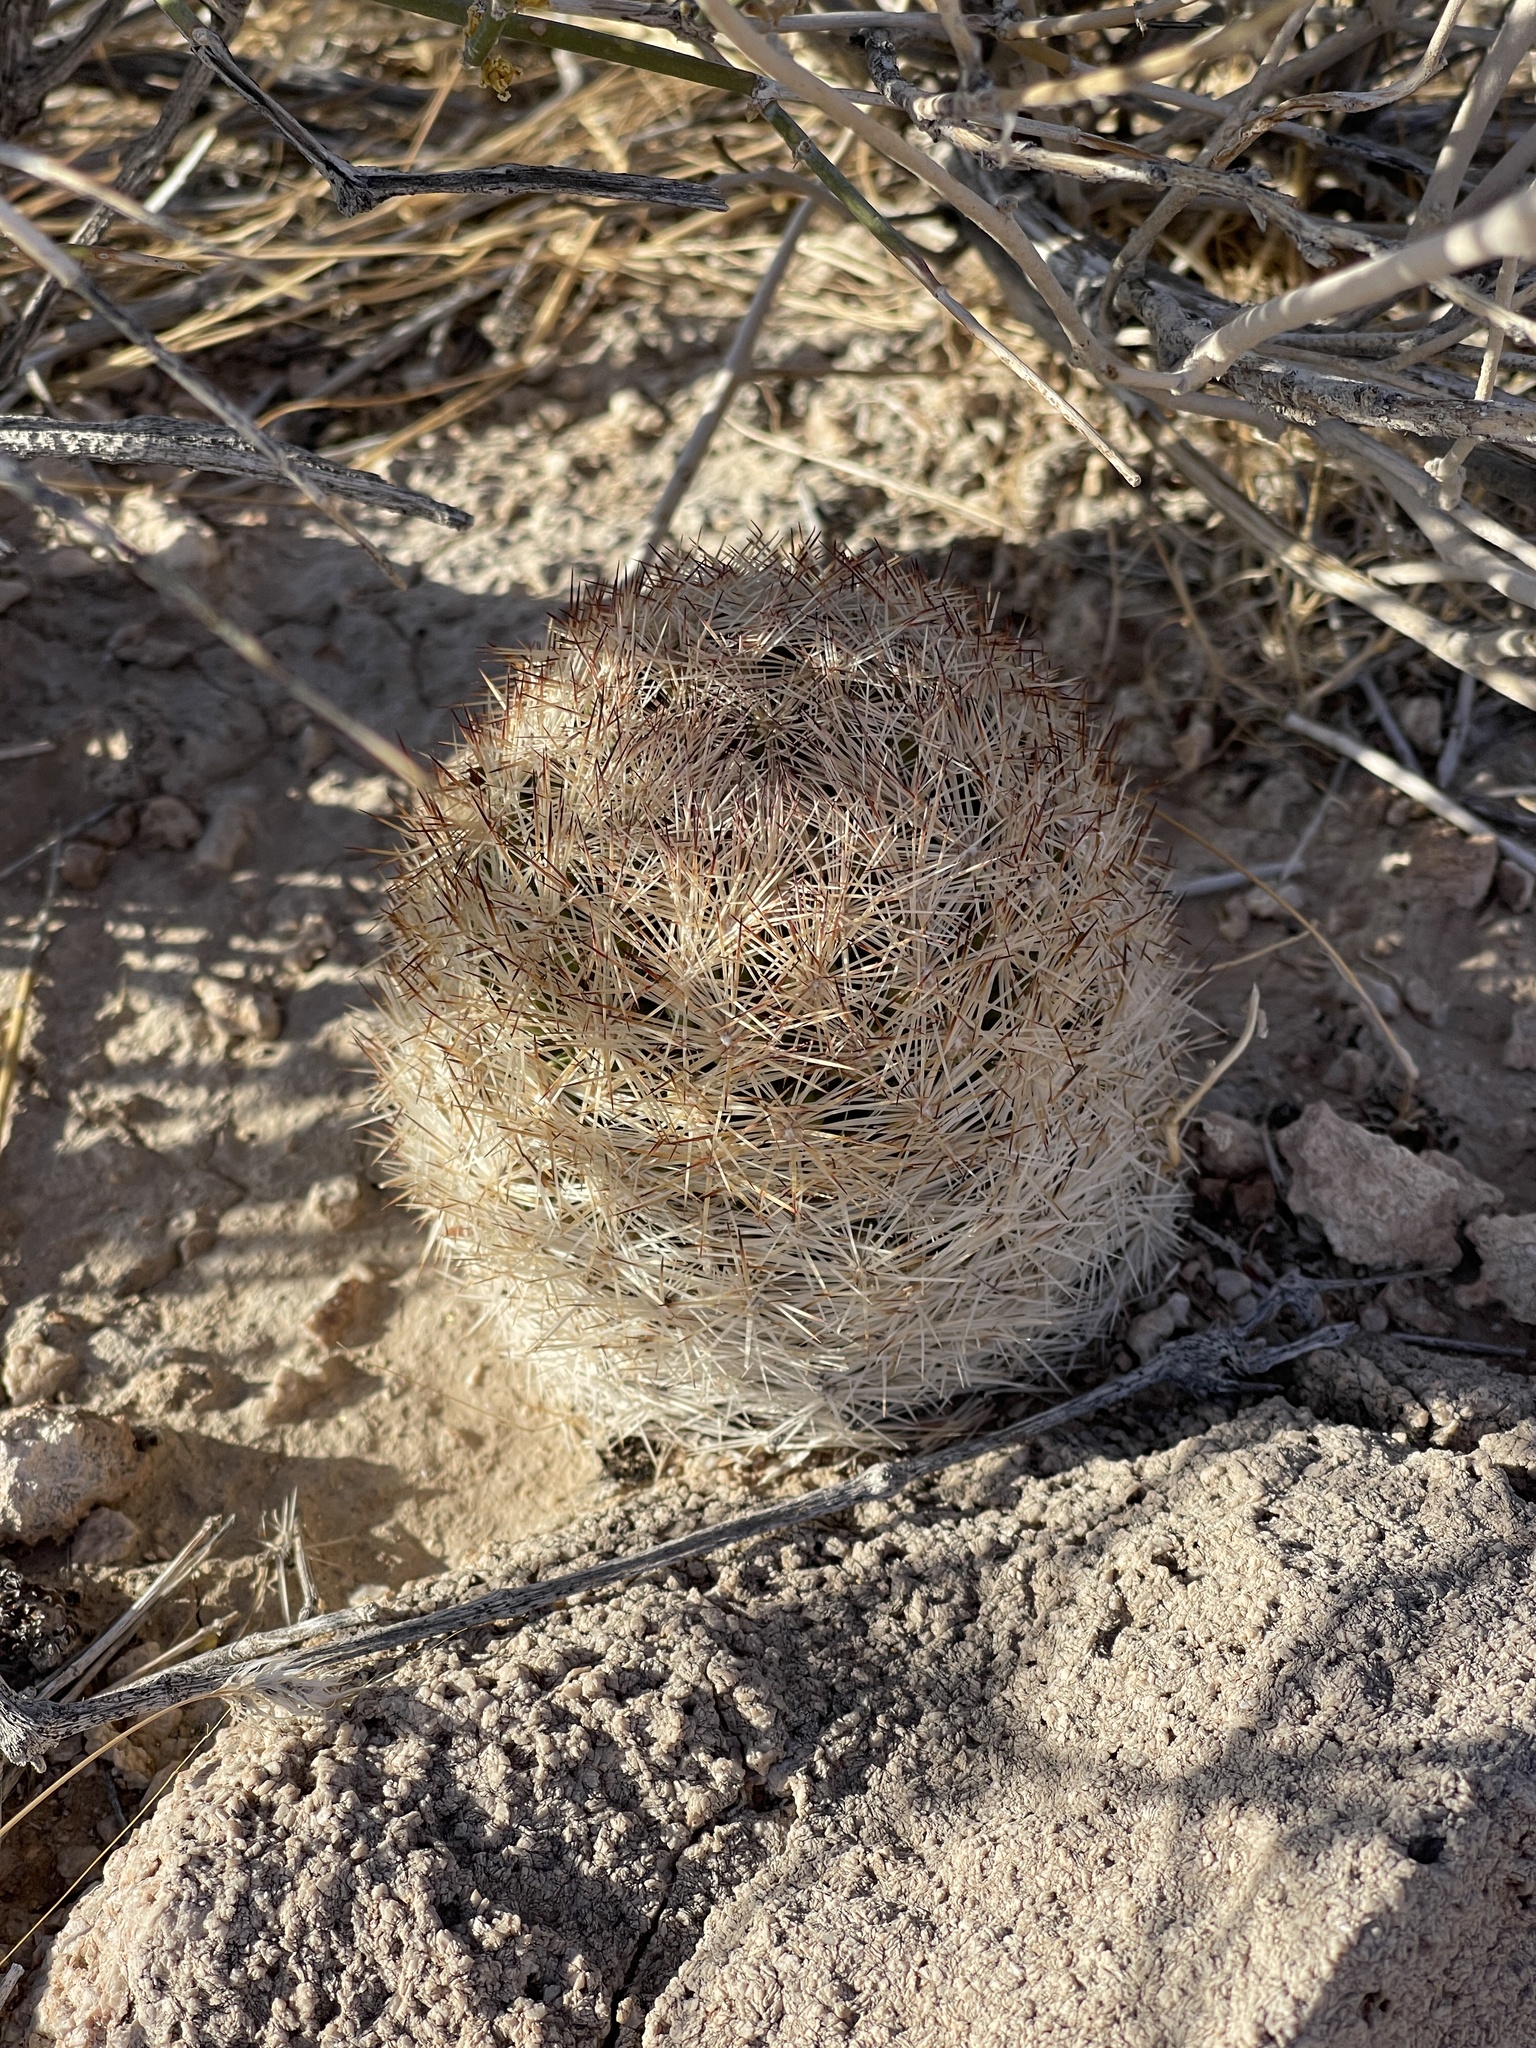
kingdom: Plantae
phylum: Tracheophyta
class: Magnoliopsida
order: Caryophyllales
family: Cactaceae
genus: Pelecyphora
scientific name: Pelecyphora dasyacantha
